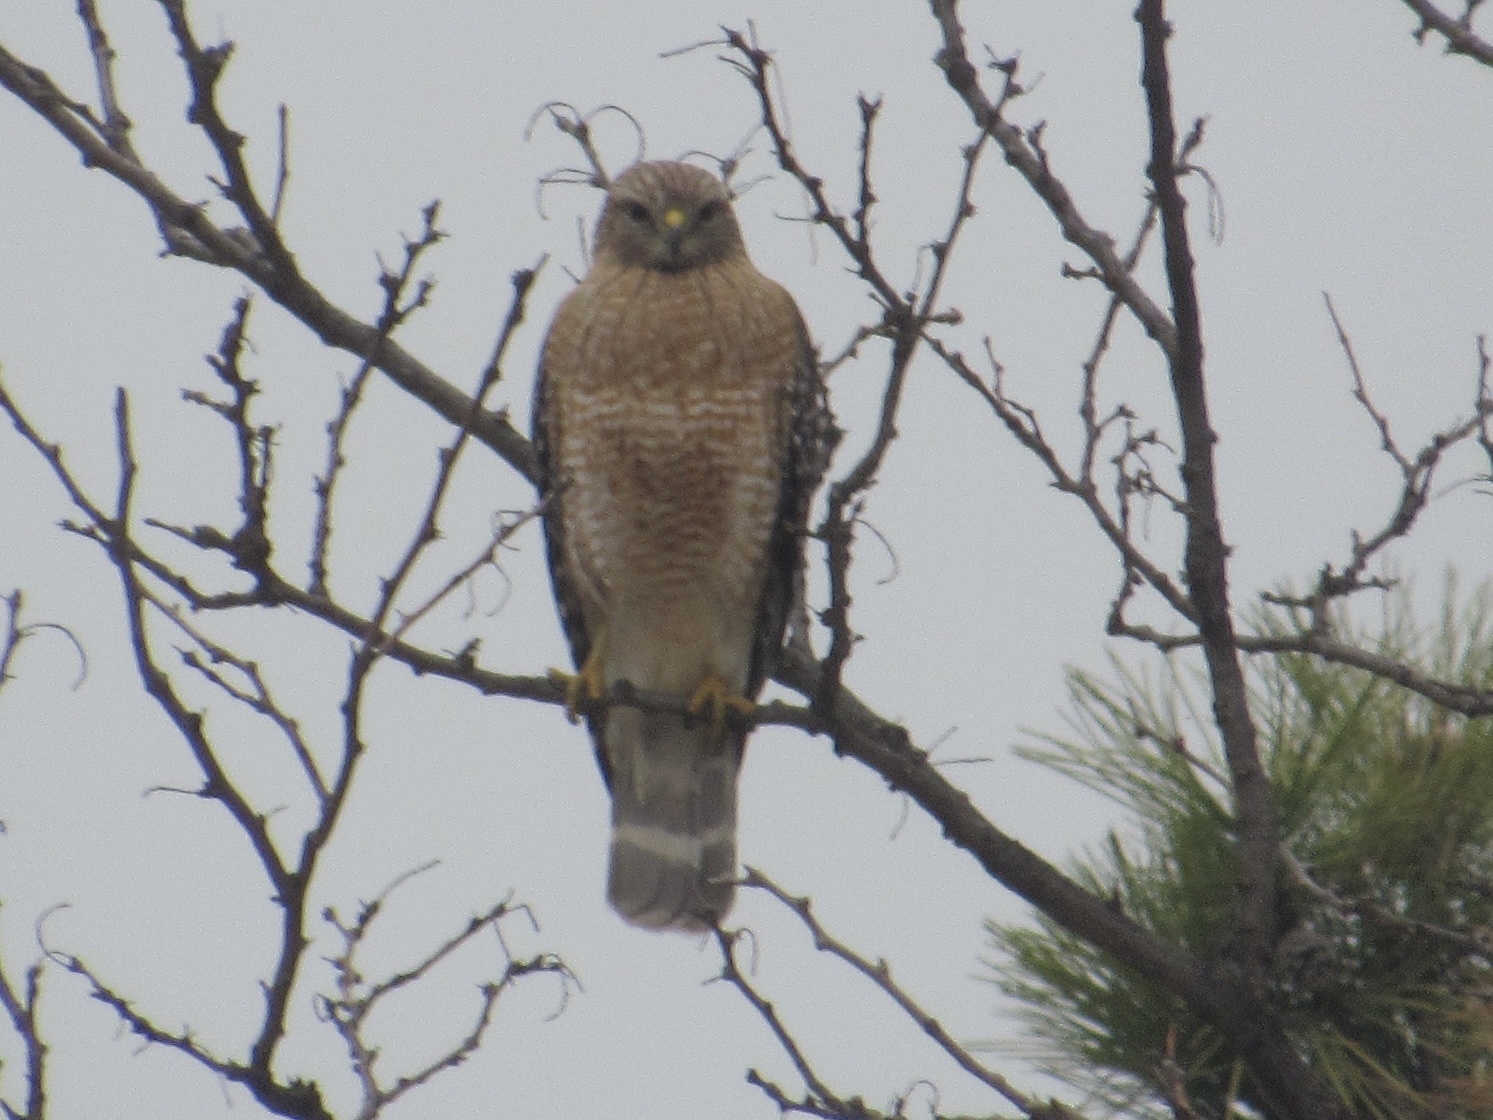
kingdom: Animalia
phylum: Chordata
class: Aves
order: Accipitriformes
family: Accipitridae
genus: Buteo
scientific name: Buteo lineatus
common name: Red-shouldered hawk
